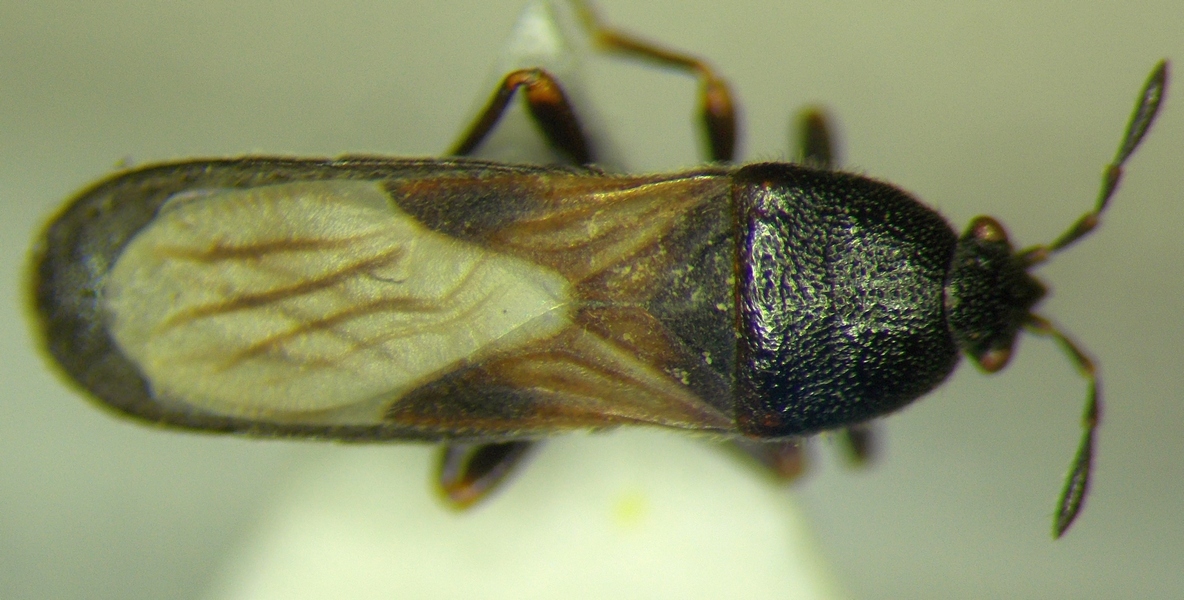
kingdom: Animalia
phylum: Arthropoda
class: Insecta
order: Hemiptera
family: Blissidae
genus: Dimorphopterus
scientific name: Dimorphopterus spinolae
